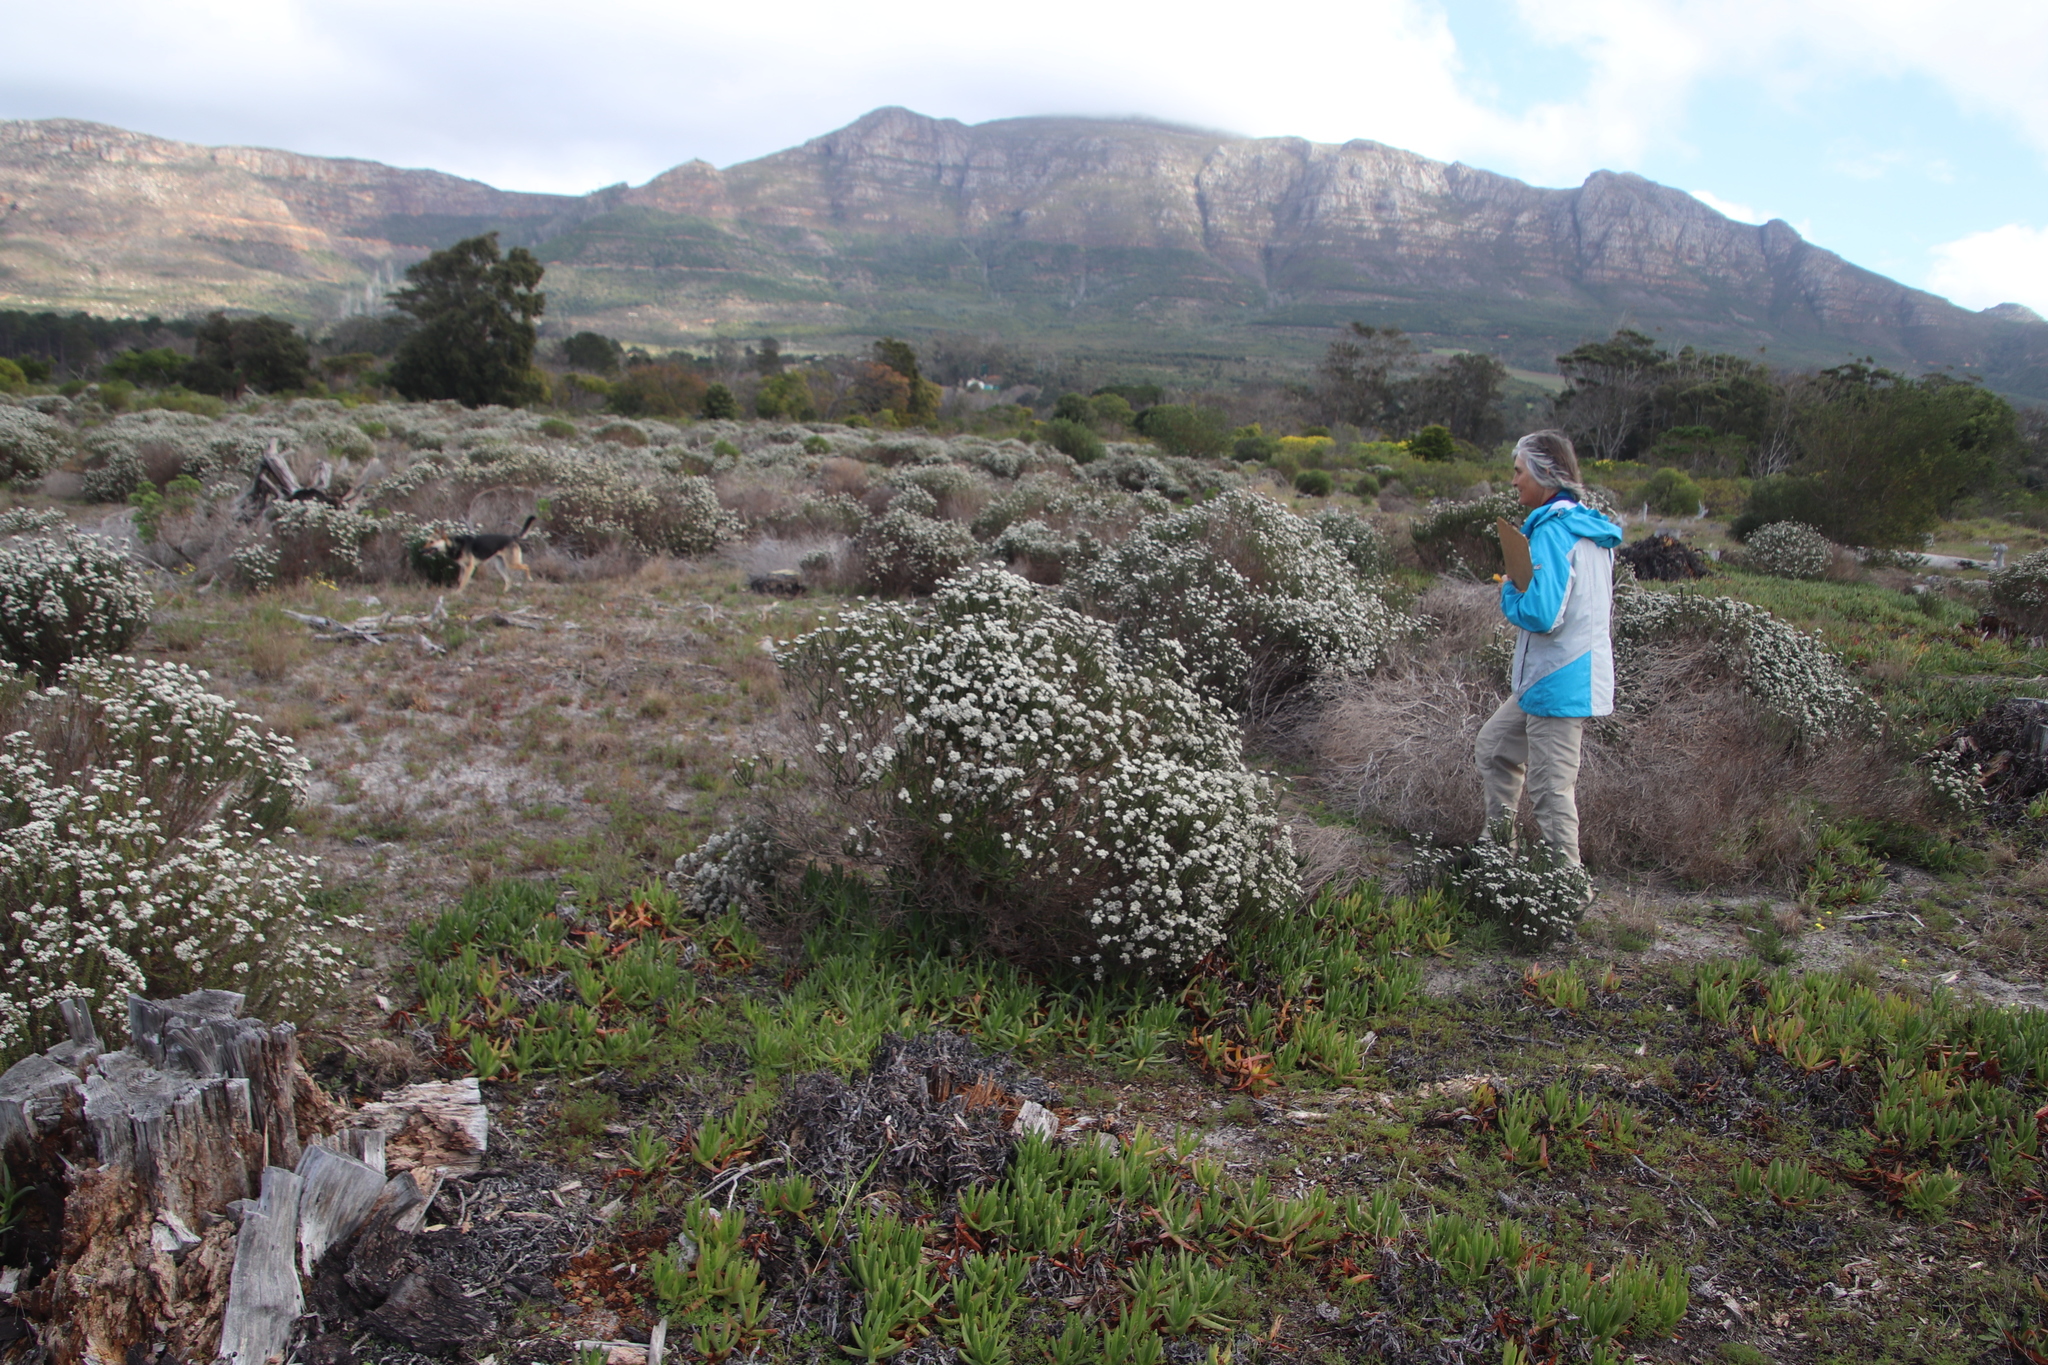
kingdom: Plantae
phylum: Tracheophyta
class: Magnoliopsida
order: Asterales
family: Asteraceae
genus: Metalasia
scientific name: Metalasia densa
